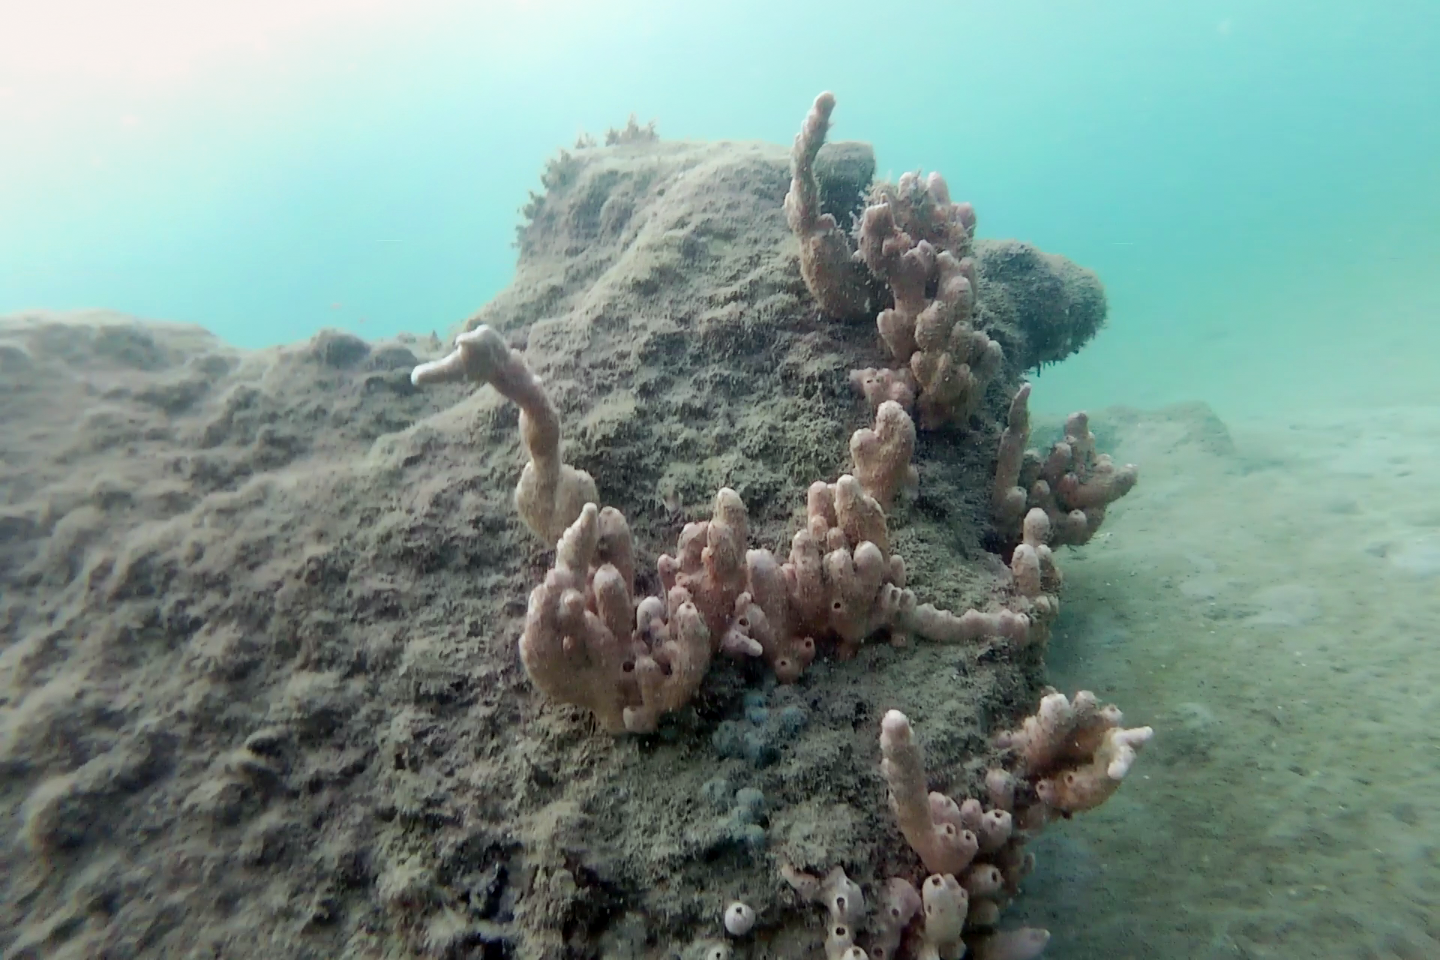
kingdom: Animalia
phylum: Porifera
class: Demospongiae
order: Poecilosclerida
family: Desmacididae
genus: Desmapsamma
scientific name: Desmapsamma anchorata
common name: Lumpy overgrowing sponge
